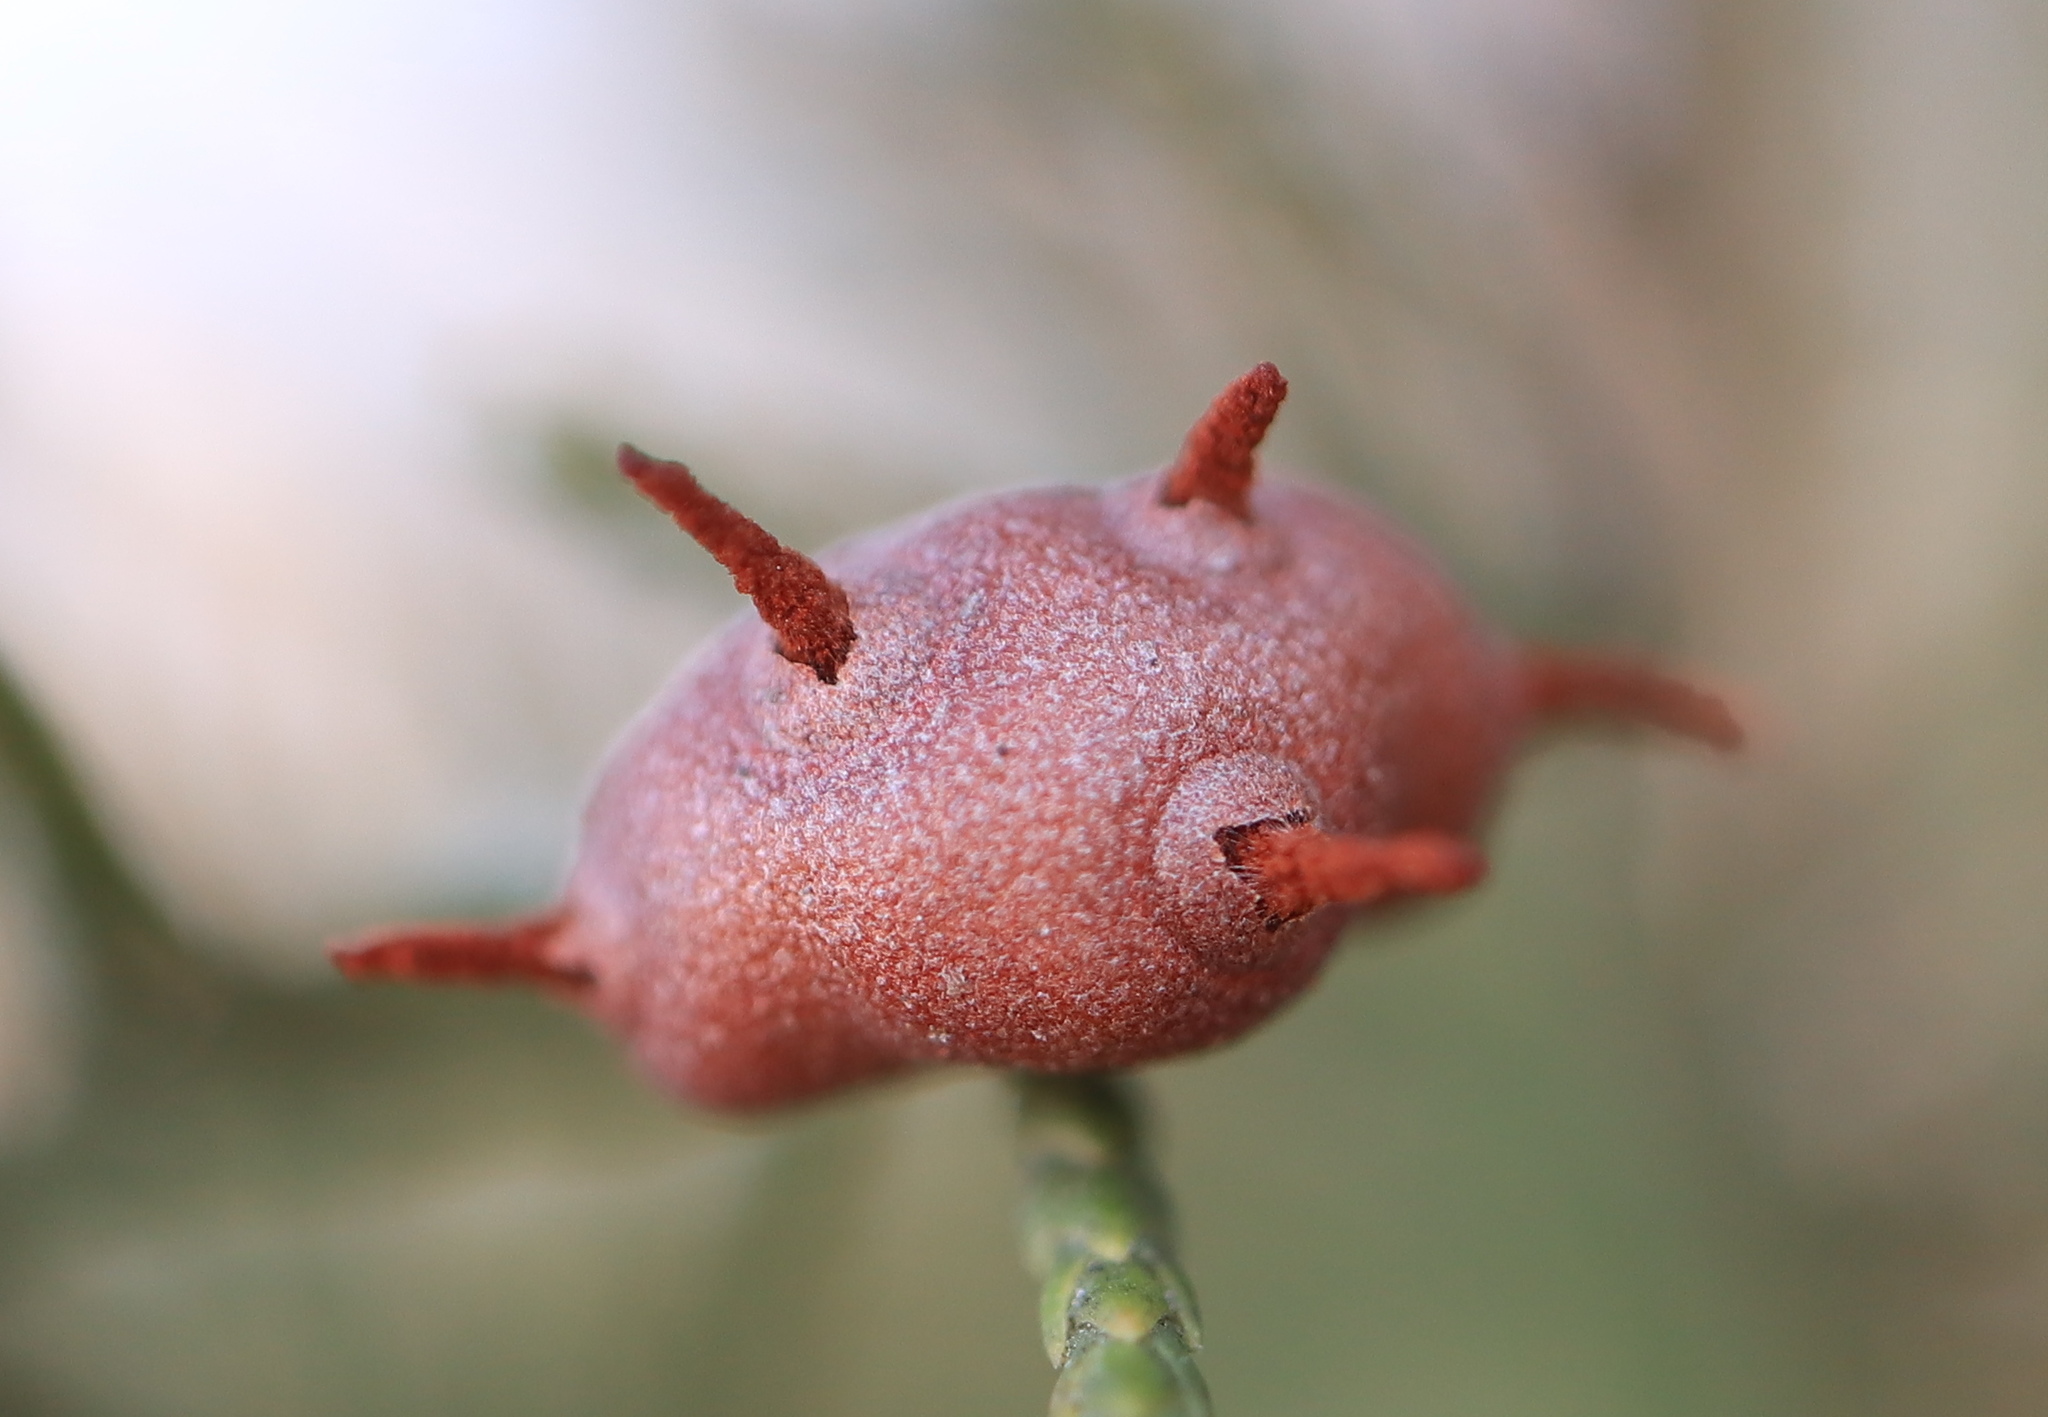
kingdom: Fungi
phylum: Basidiomycota
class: Pucciniomycetes
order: Pucciniales
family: Gymnosporangiaceae
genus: Gymnosporangium
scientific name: Gymnosporangium juniperi-virginianae
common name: Juniper-apple rust
